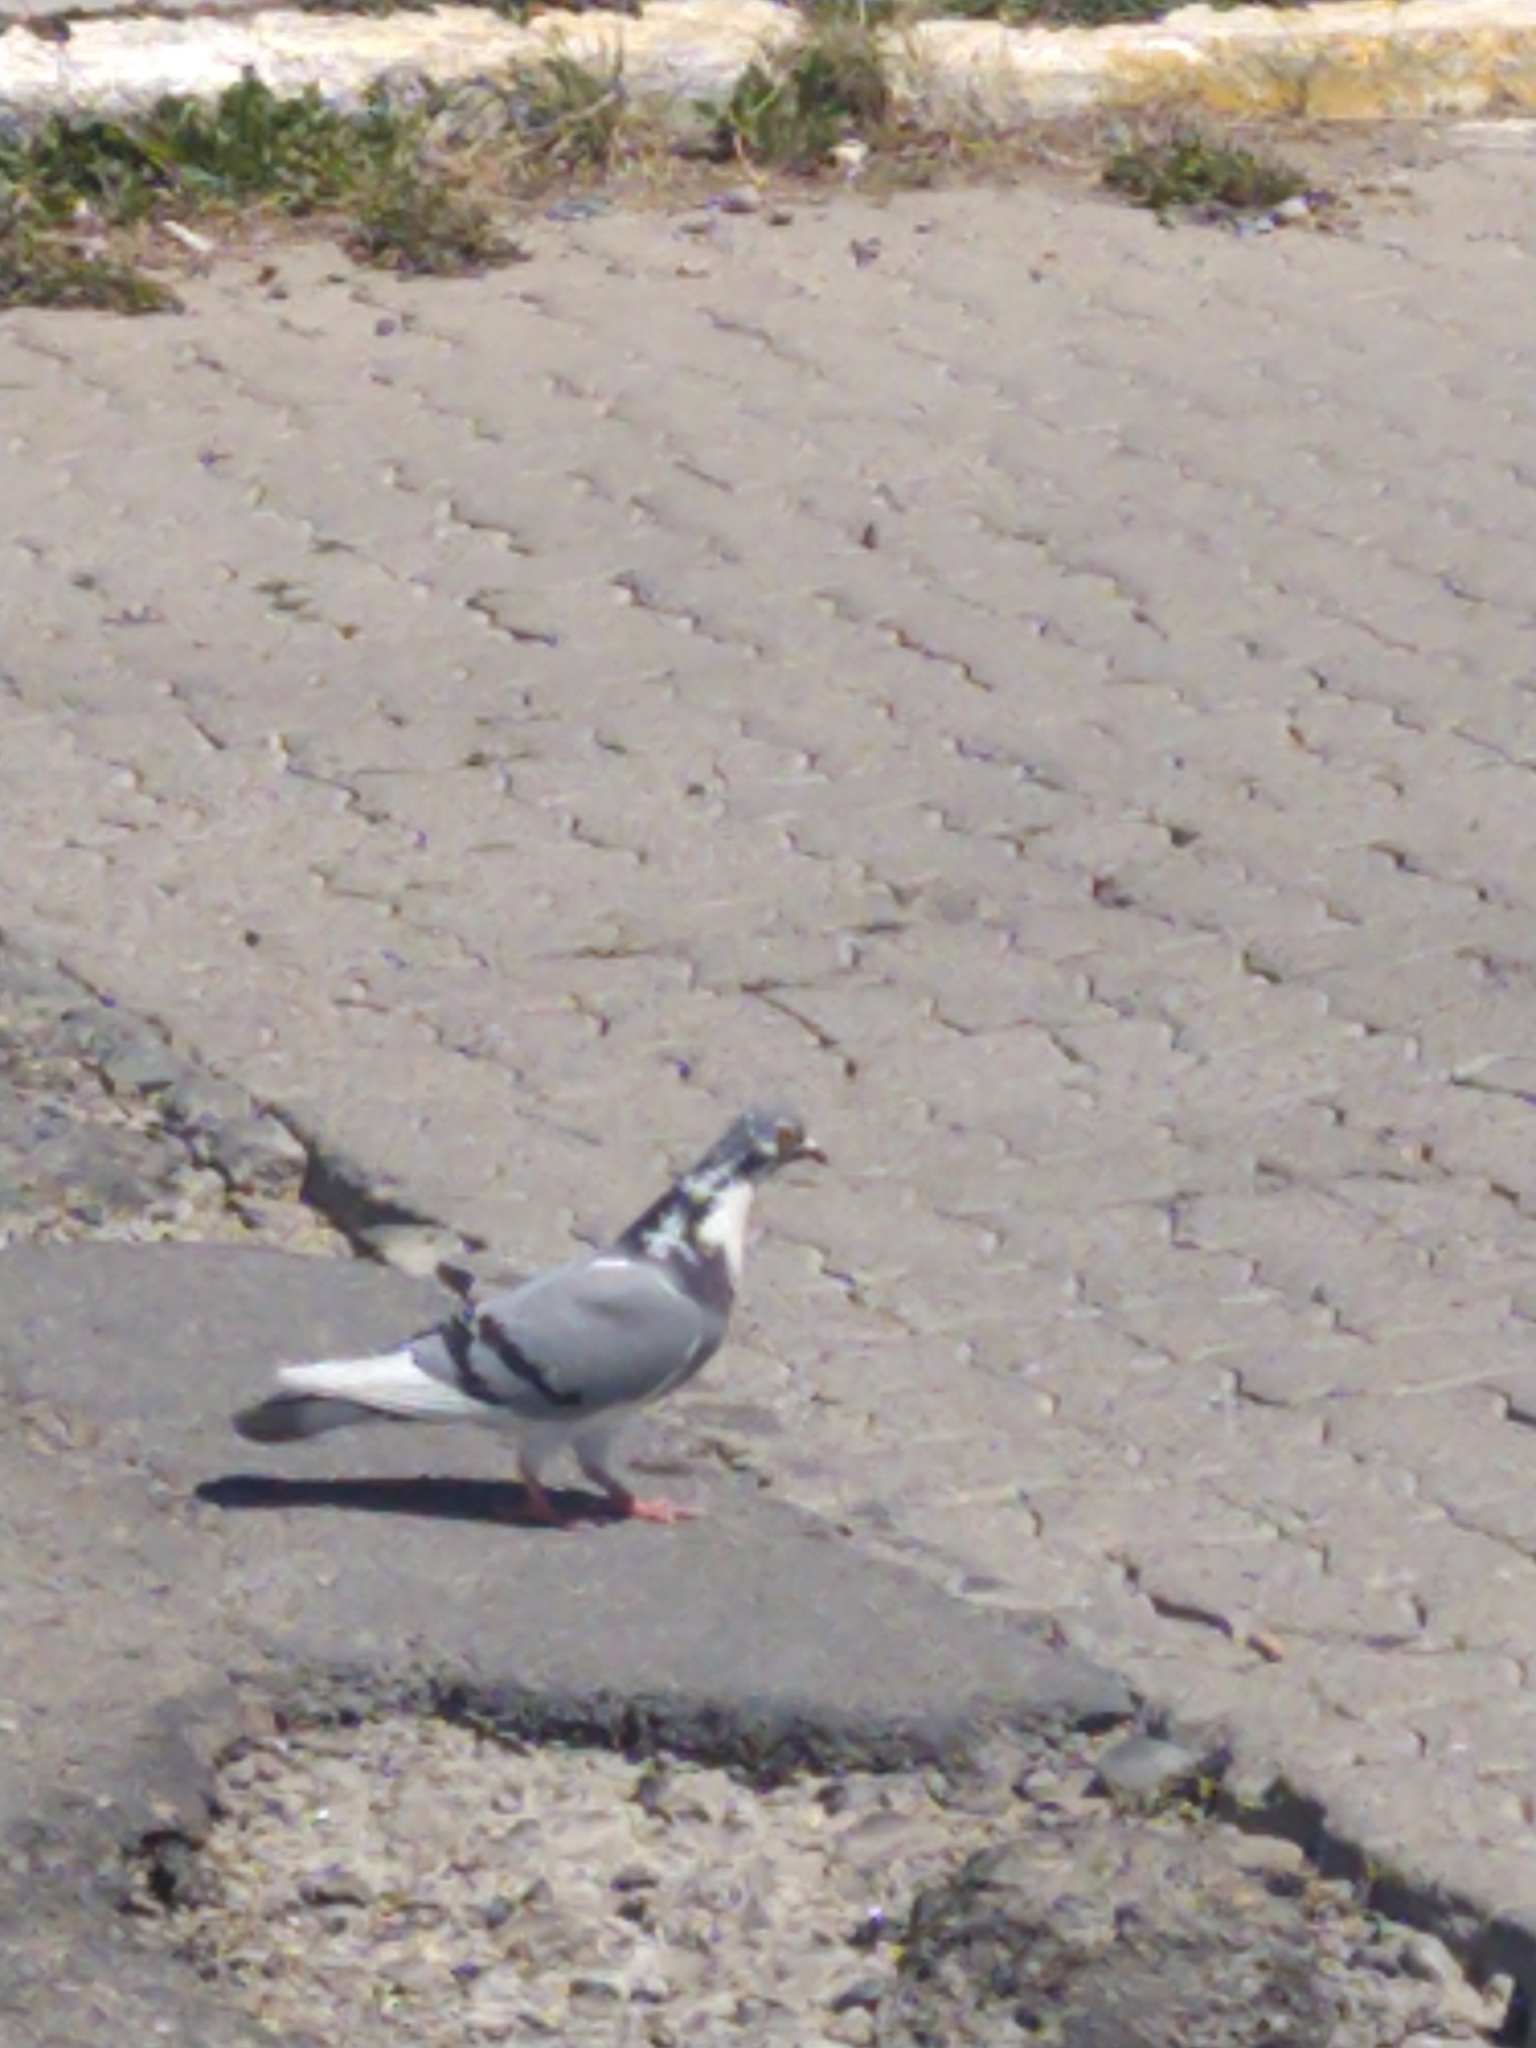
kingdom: Animalia
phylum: Chordata
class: Aves
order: Columbiformes
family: Columbidae
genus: Columba
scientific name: Columba livia
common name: Rock pigeon
